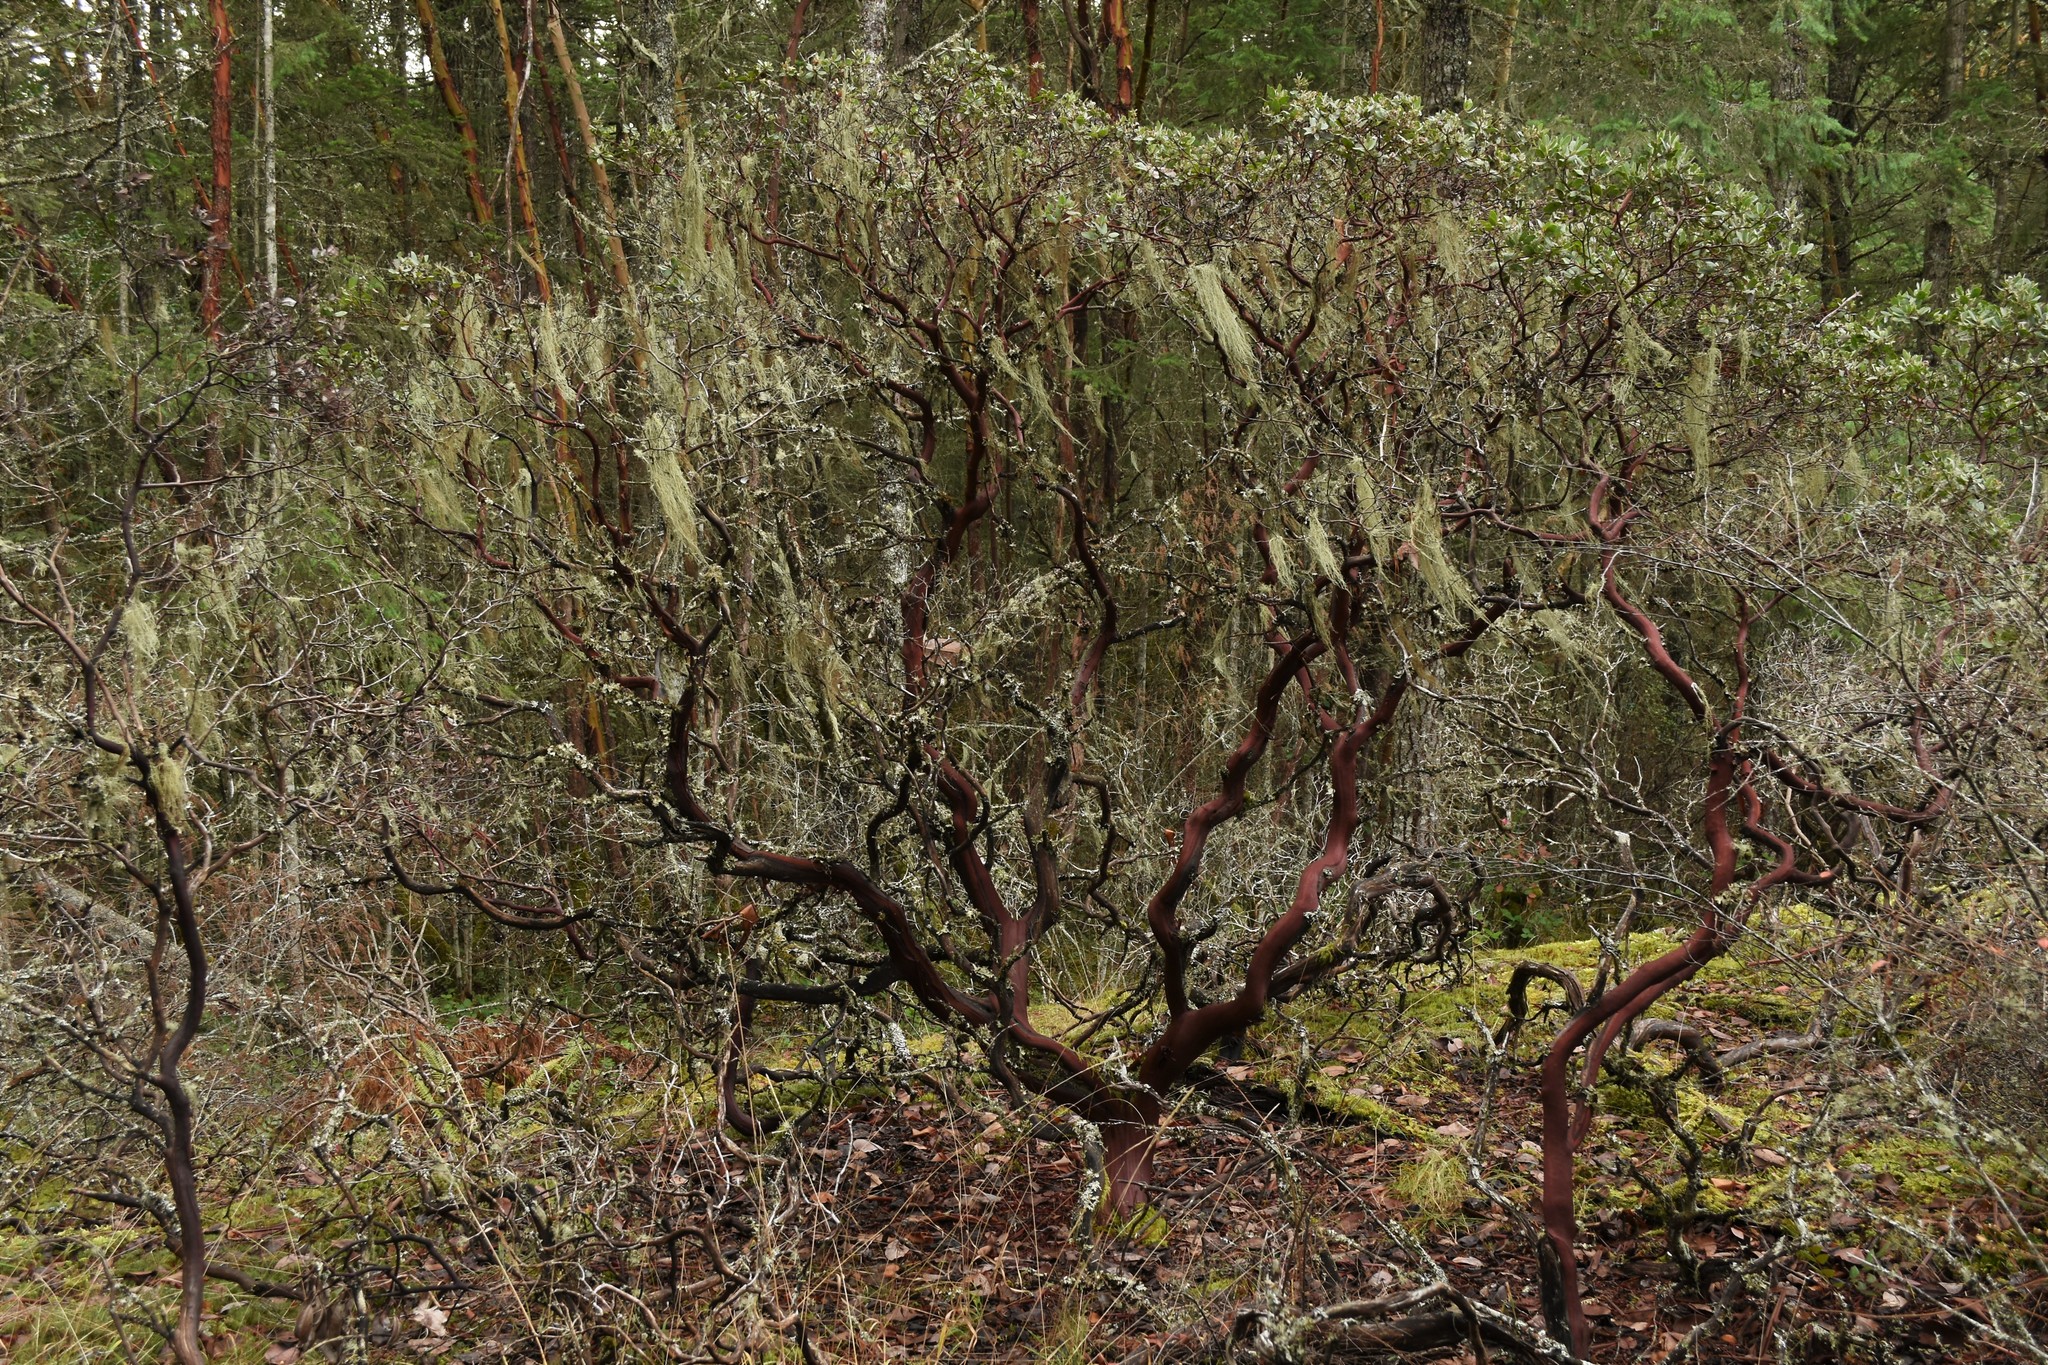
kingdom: Plantae
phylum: Tracheophyta
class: Magnoliopsida
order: Ericales
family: Ericaceae
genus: Arctostaphylos
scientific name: Arctostaphylos columbiana
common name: Bristly bearberry
